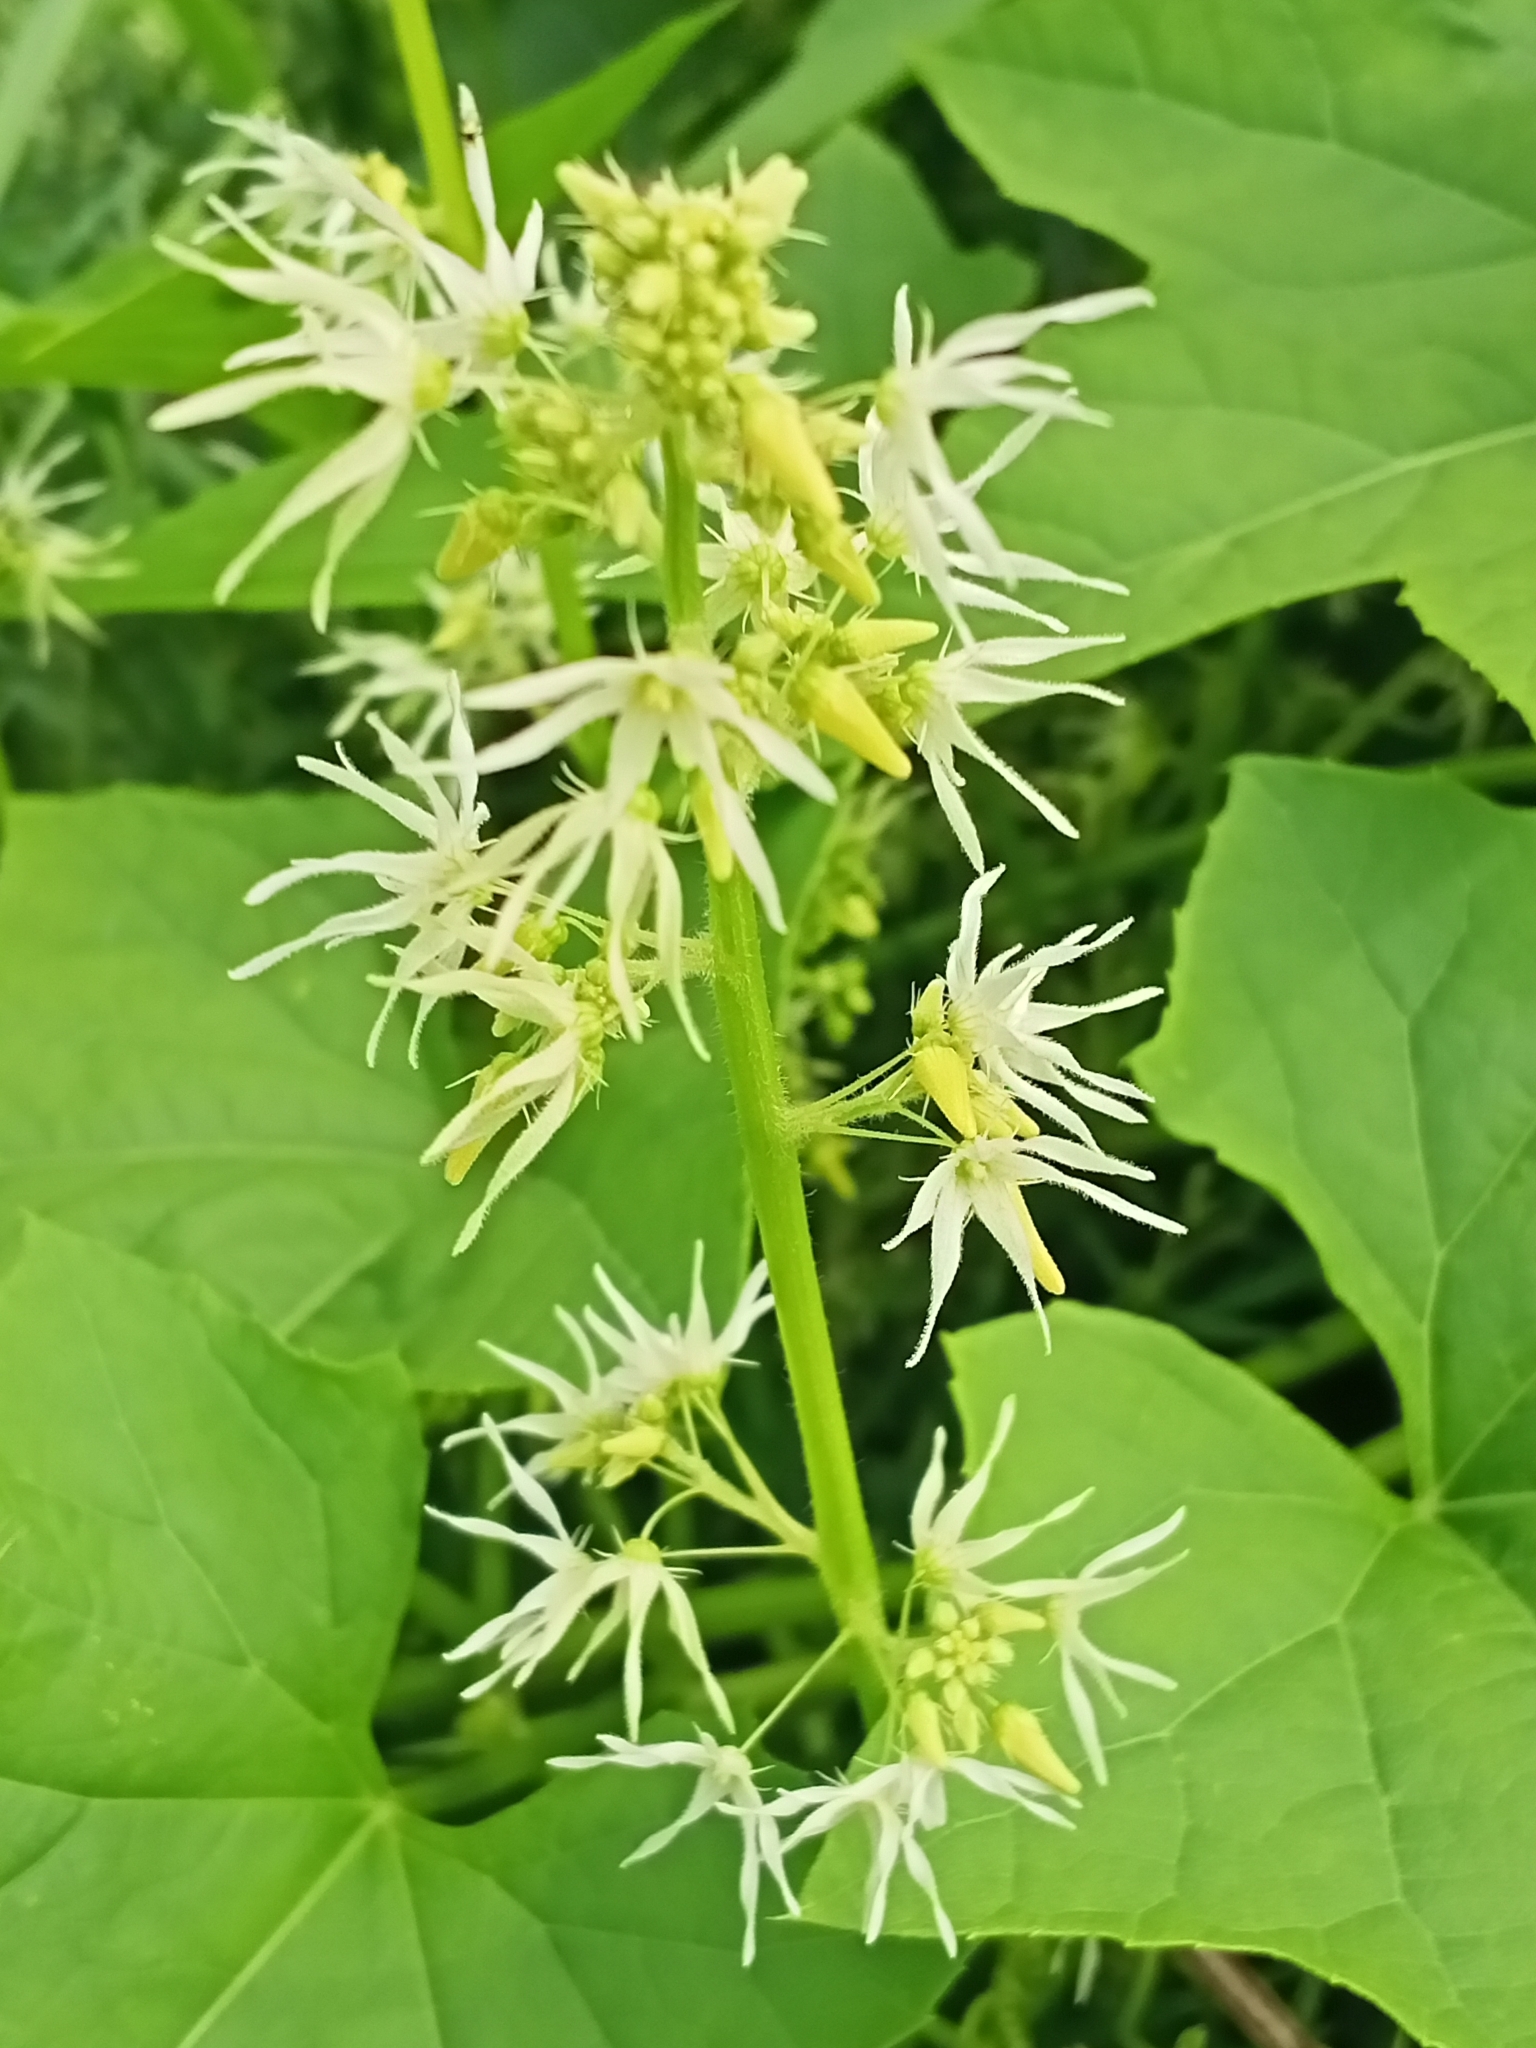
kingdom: Plantae
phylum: Tracheophyta
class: Magnoliopsida
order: Cucurbitales
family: Cucurbitaceae
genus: Echinocystis
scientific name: Echinocystis lobata
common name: Wild cucumber
